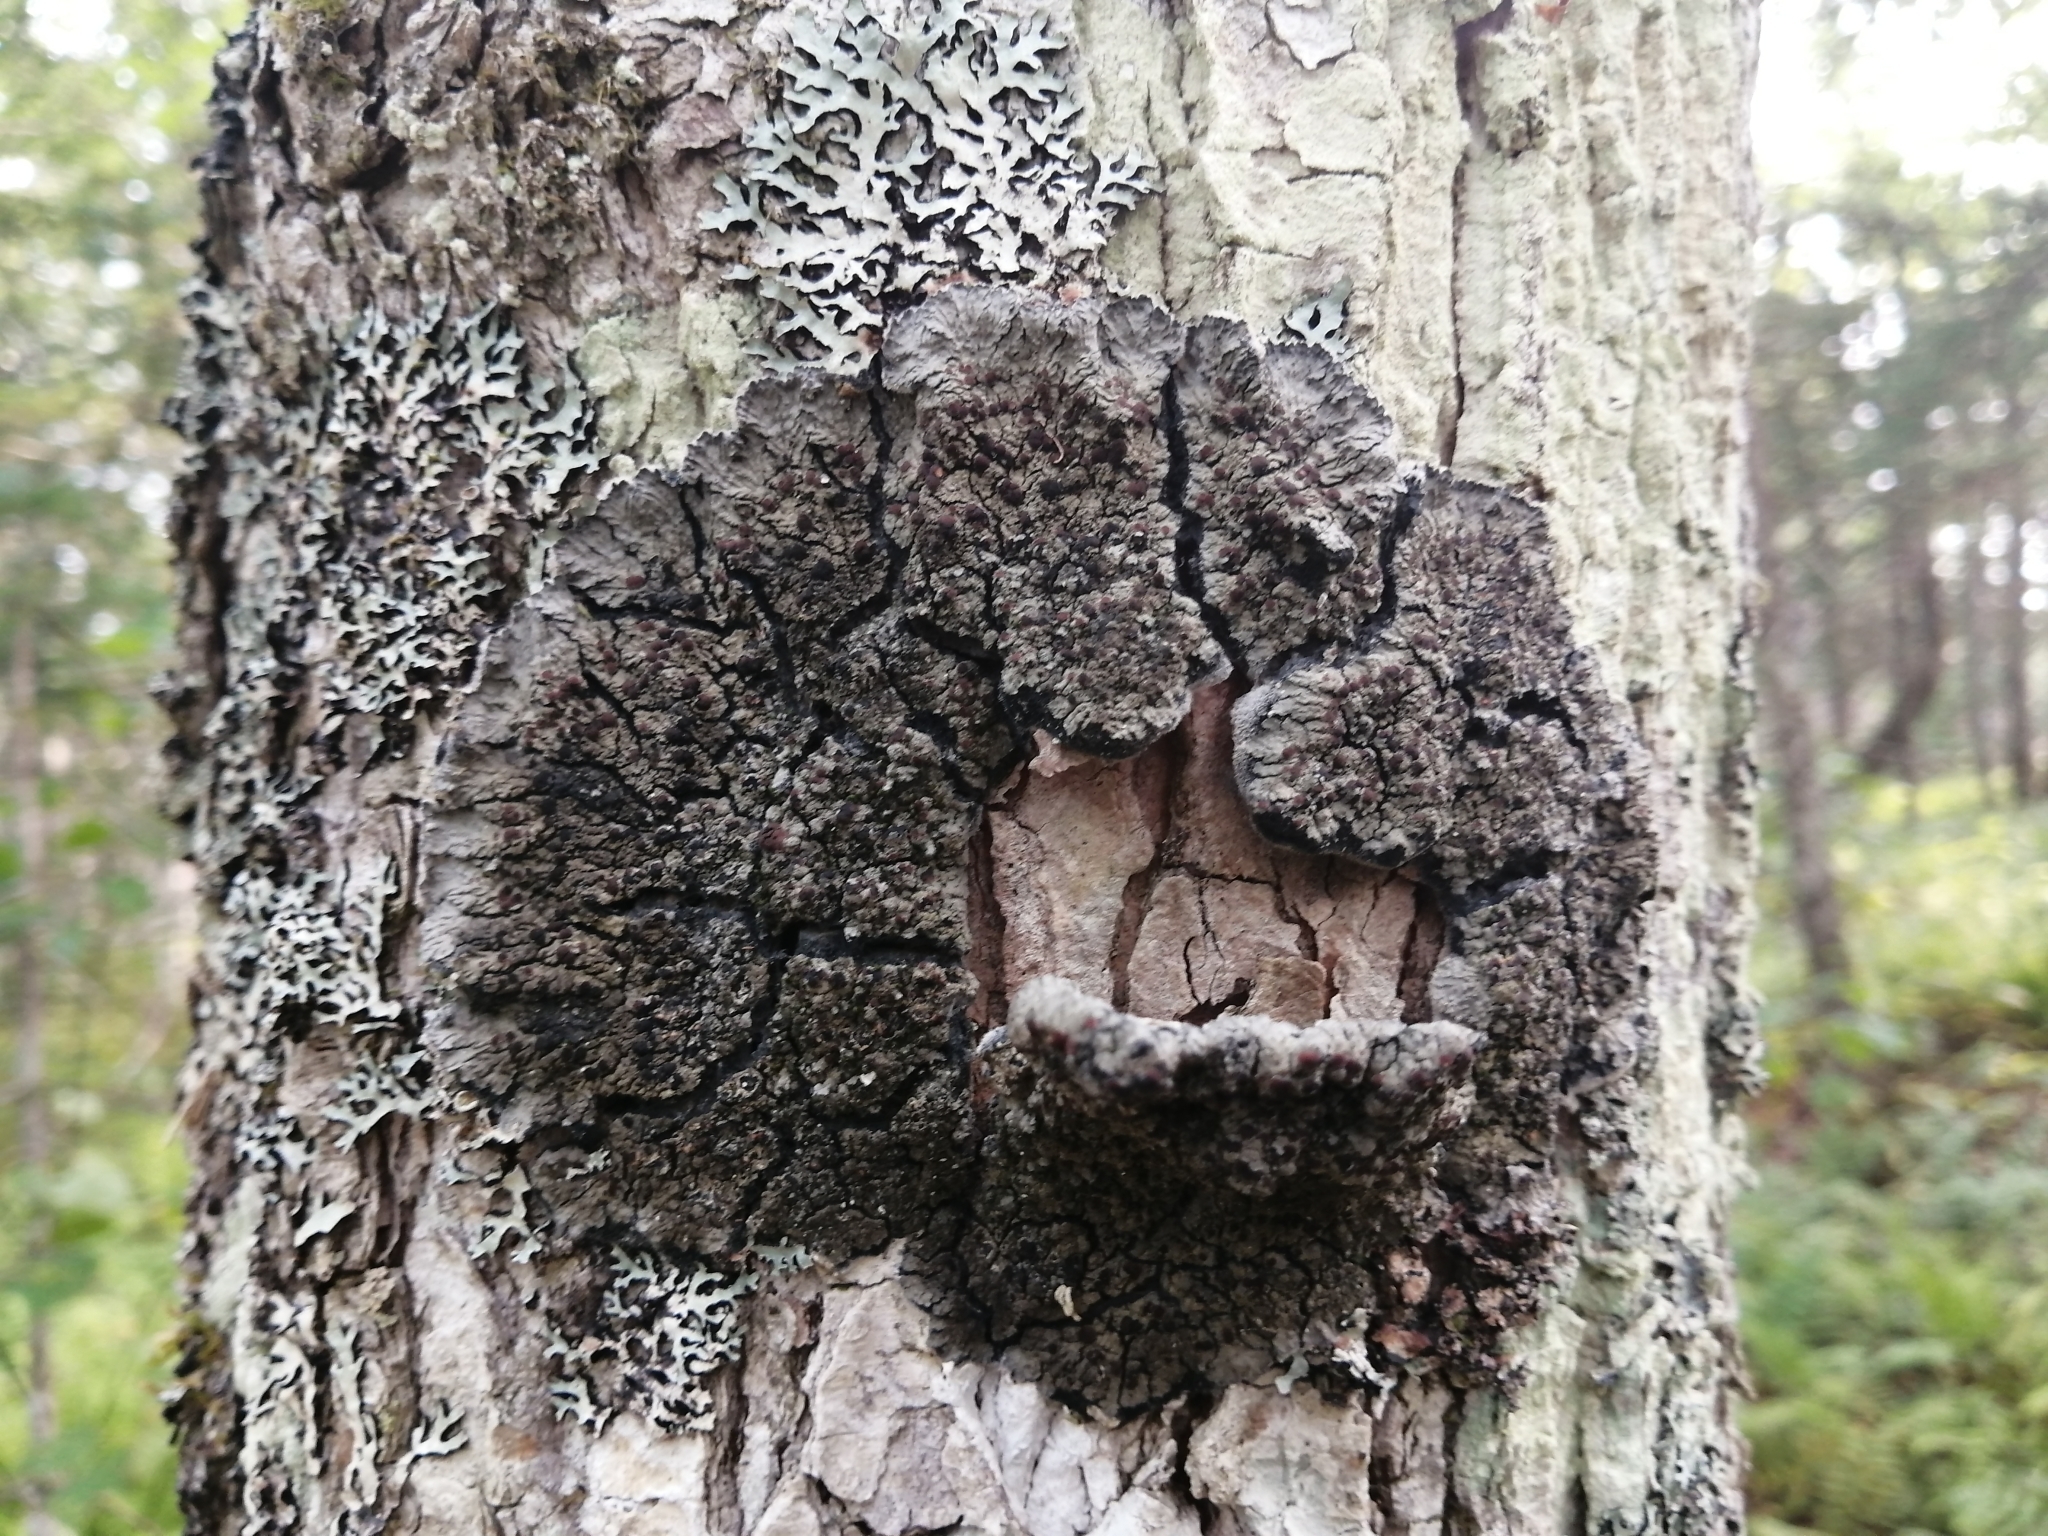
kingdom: Fungi
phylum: Ascomycota
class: Lecanoromycetes
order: Peltigerales
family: Pannariaceae
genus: Pectenia
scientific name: Pectenia plumbea
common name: Bladder stalks
